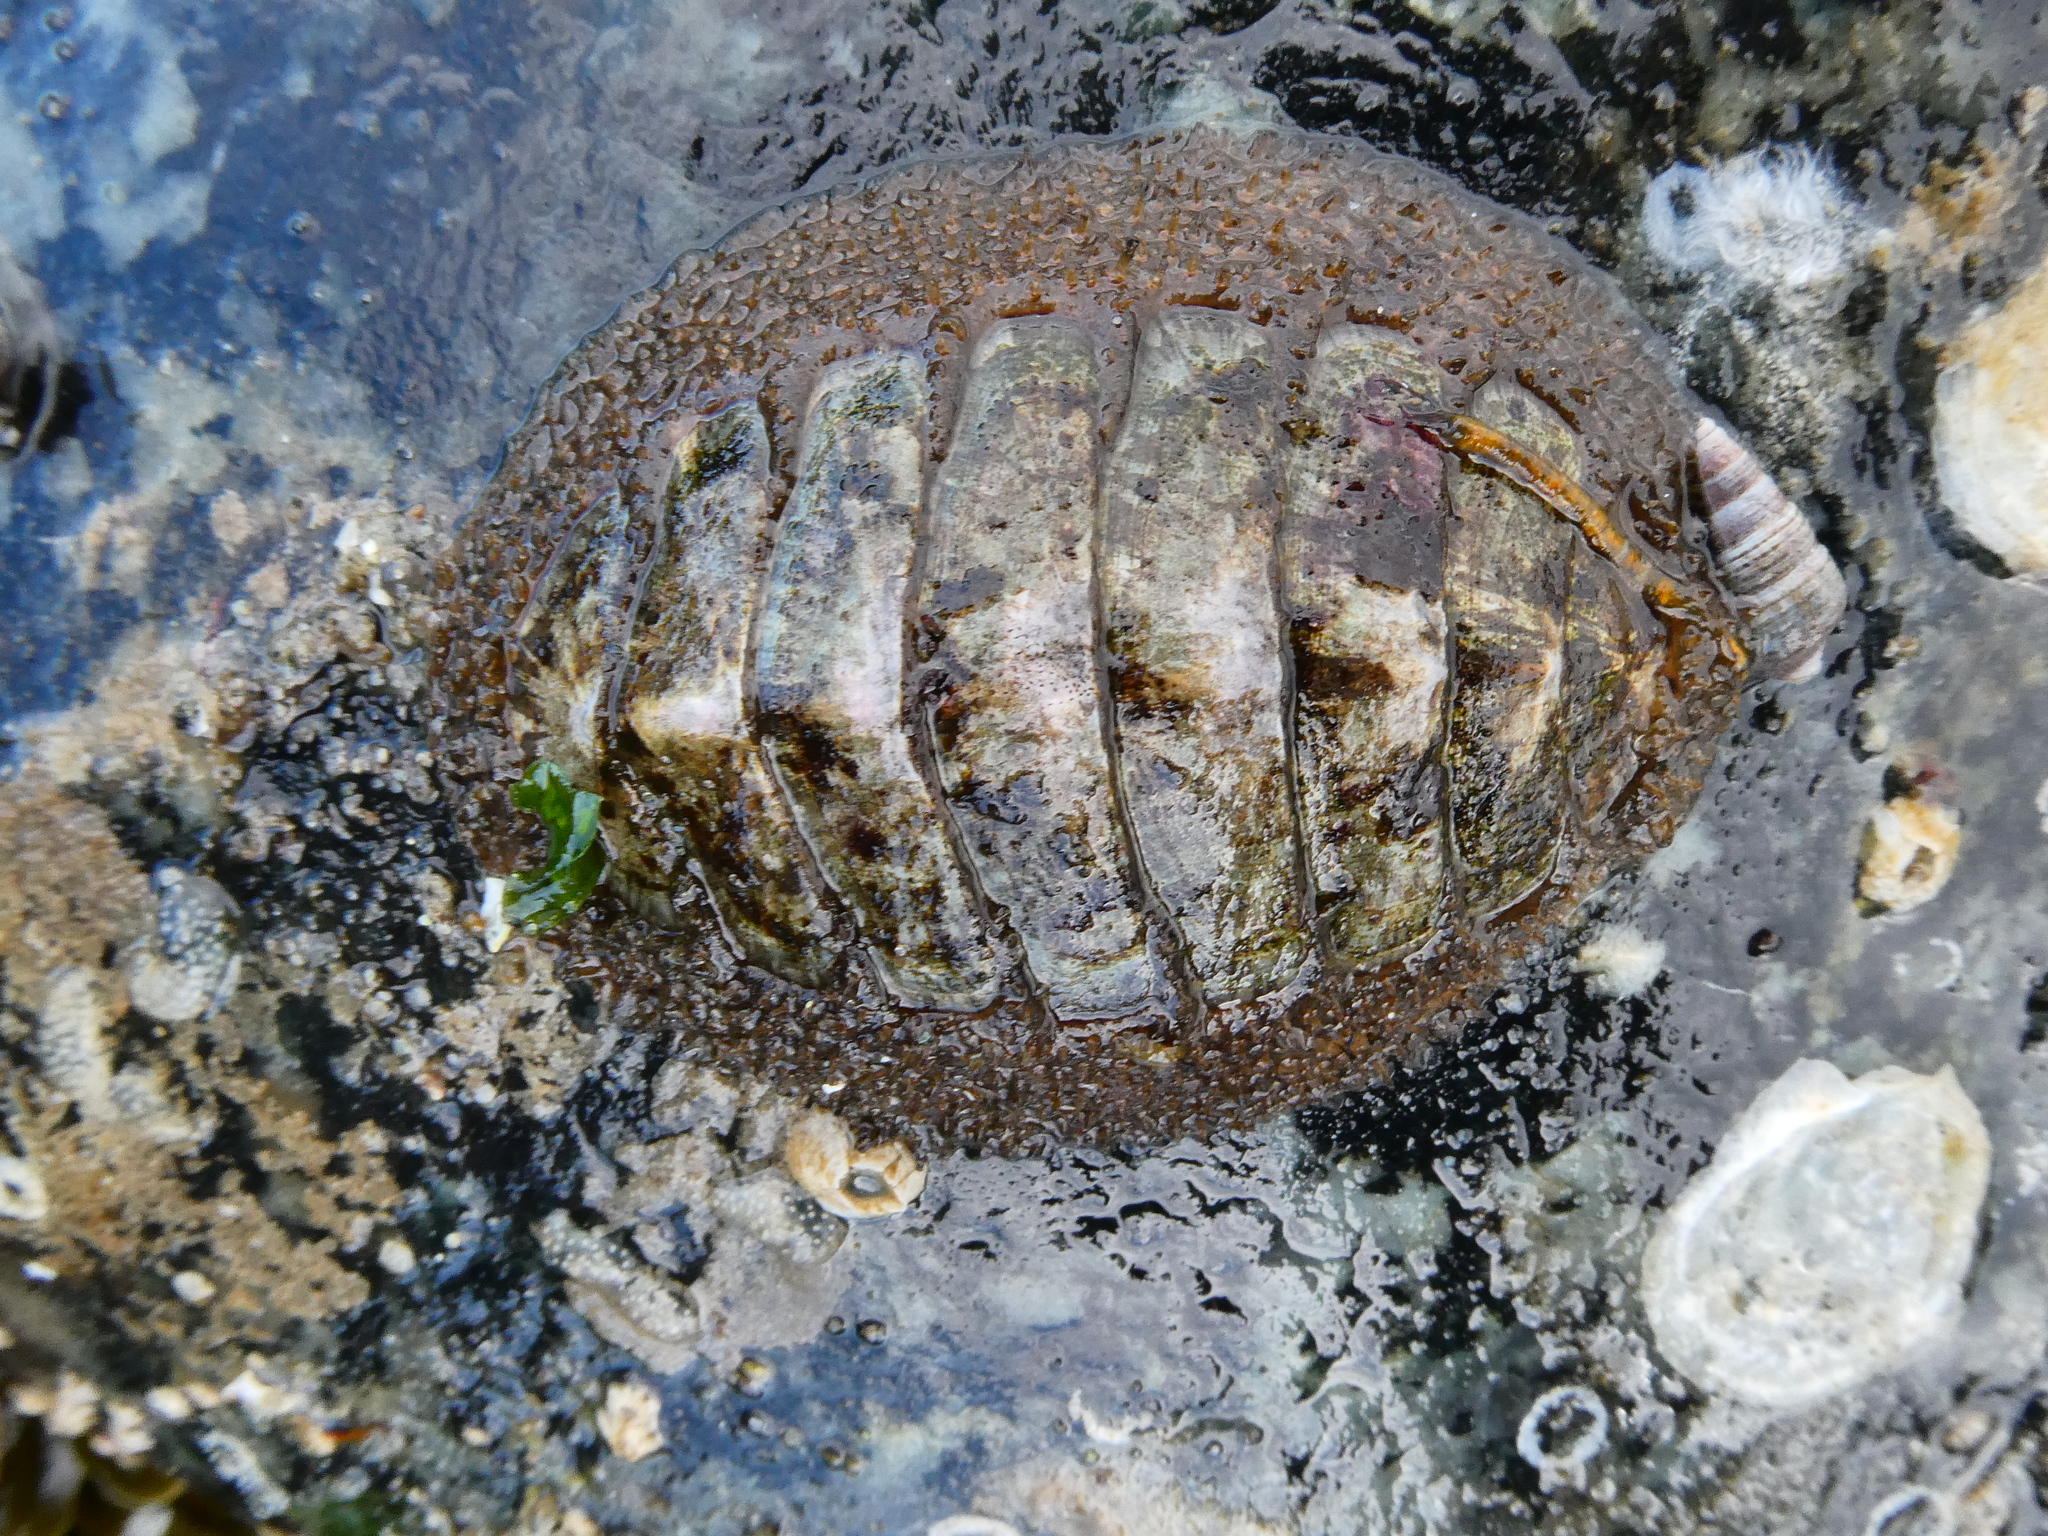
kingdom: Animalia
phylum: Mollusca
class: Polyplacophora
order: Chitonida
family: Mopaliidae
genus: Mopalia
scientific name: Mopalia lignosa
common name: Woody chiton
